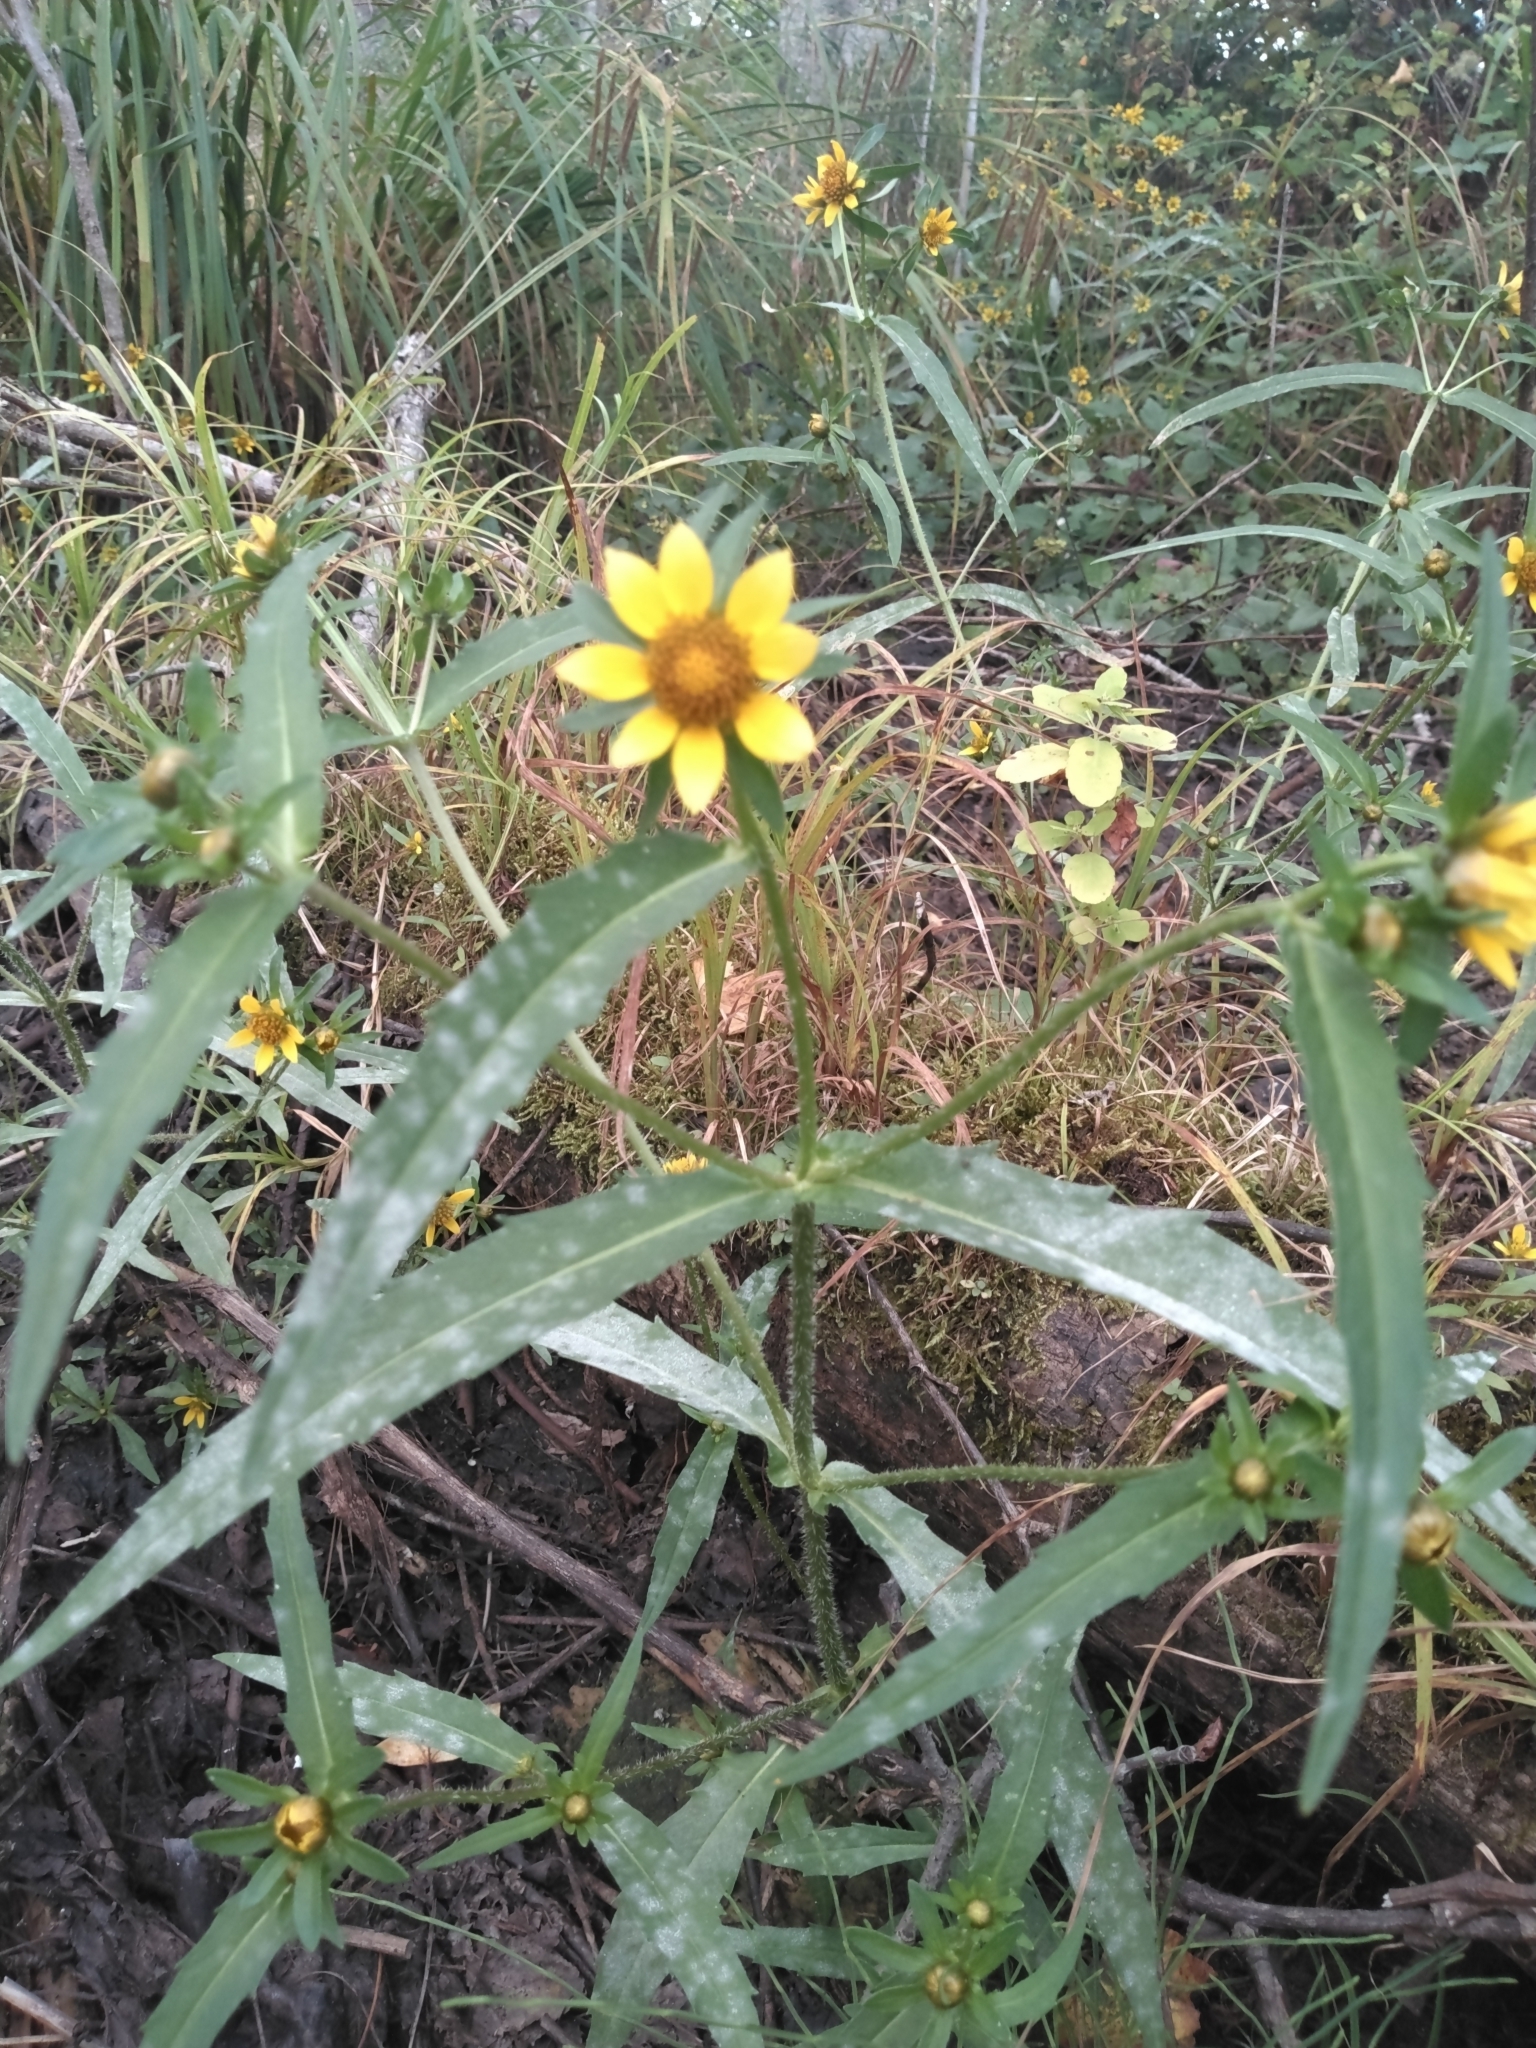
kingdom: Plantae
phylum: Tracheophyta
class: Magnoliopsida
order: Asterales
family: Asteraceae
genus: Bidens
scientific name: Bidens cernua
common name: Nodding bur-marigold
